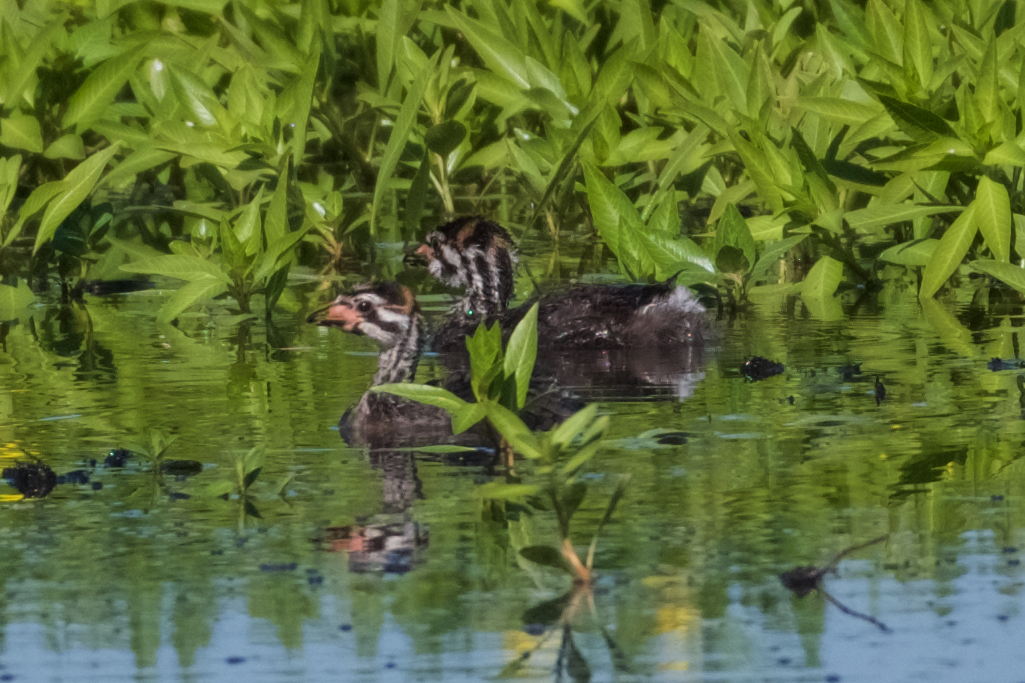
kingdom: Animalia
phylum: Chordata
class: Aves
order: Podicipediformes
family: Podicipedidae
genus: Podilymbus
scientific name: Podilymbus podiceps
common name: Pied-billed grebe
